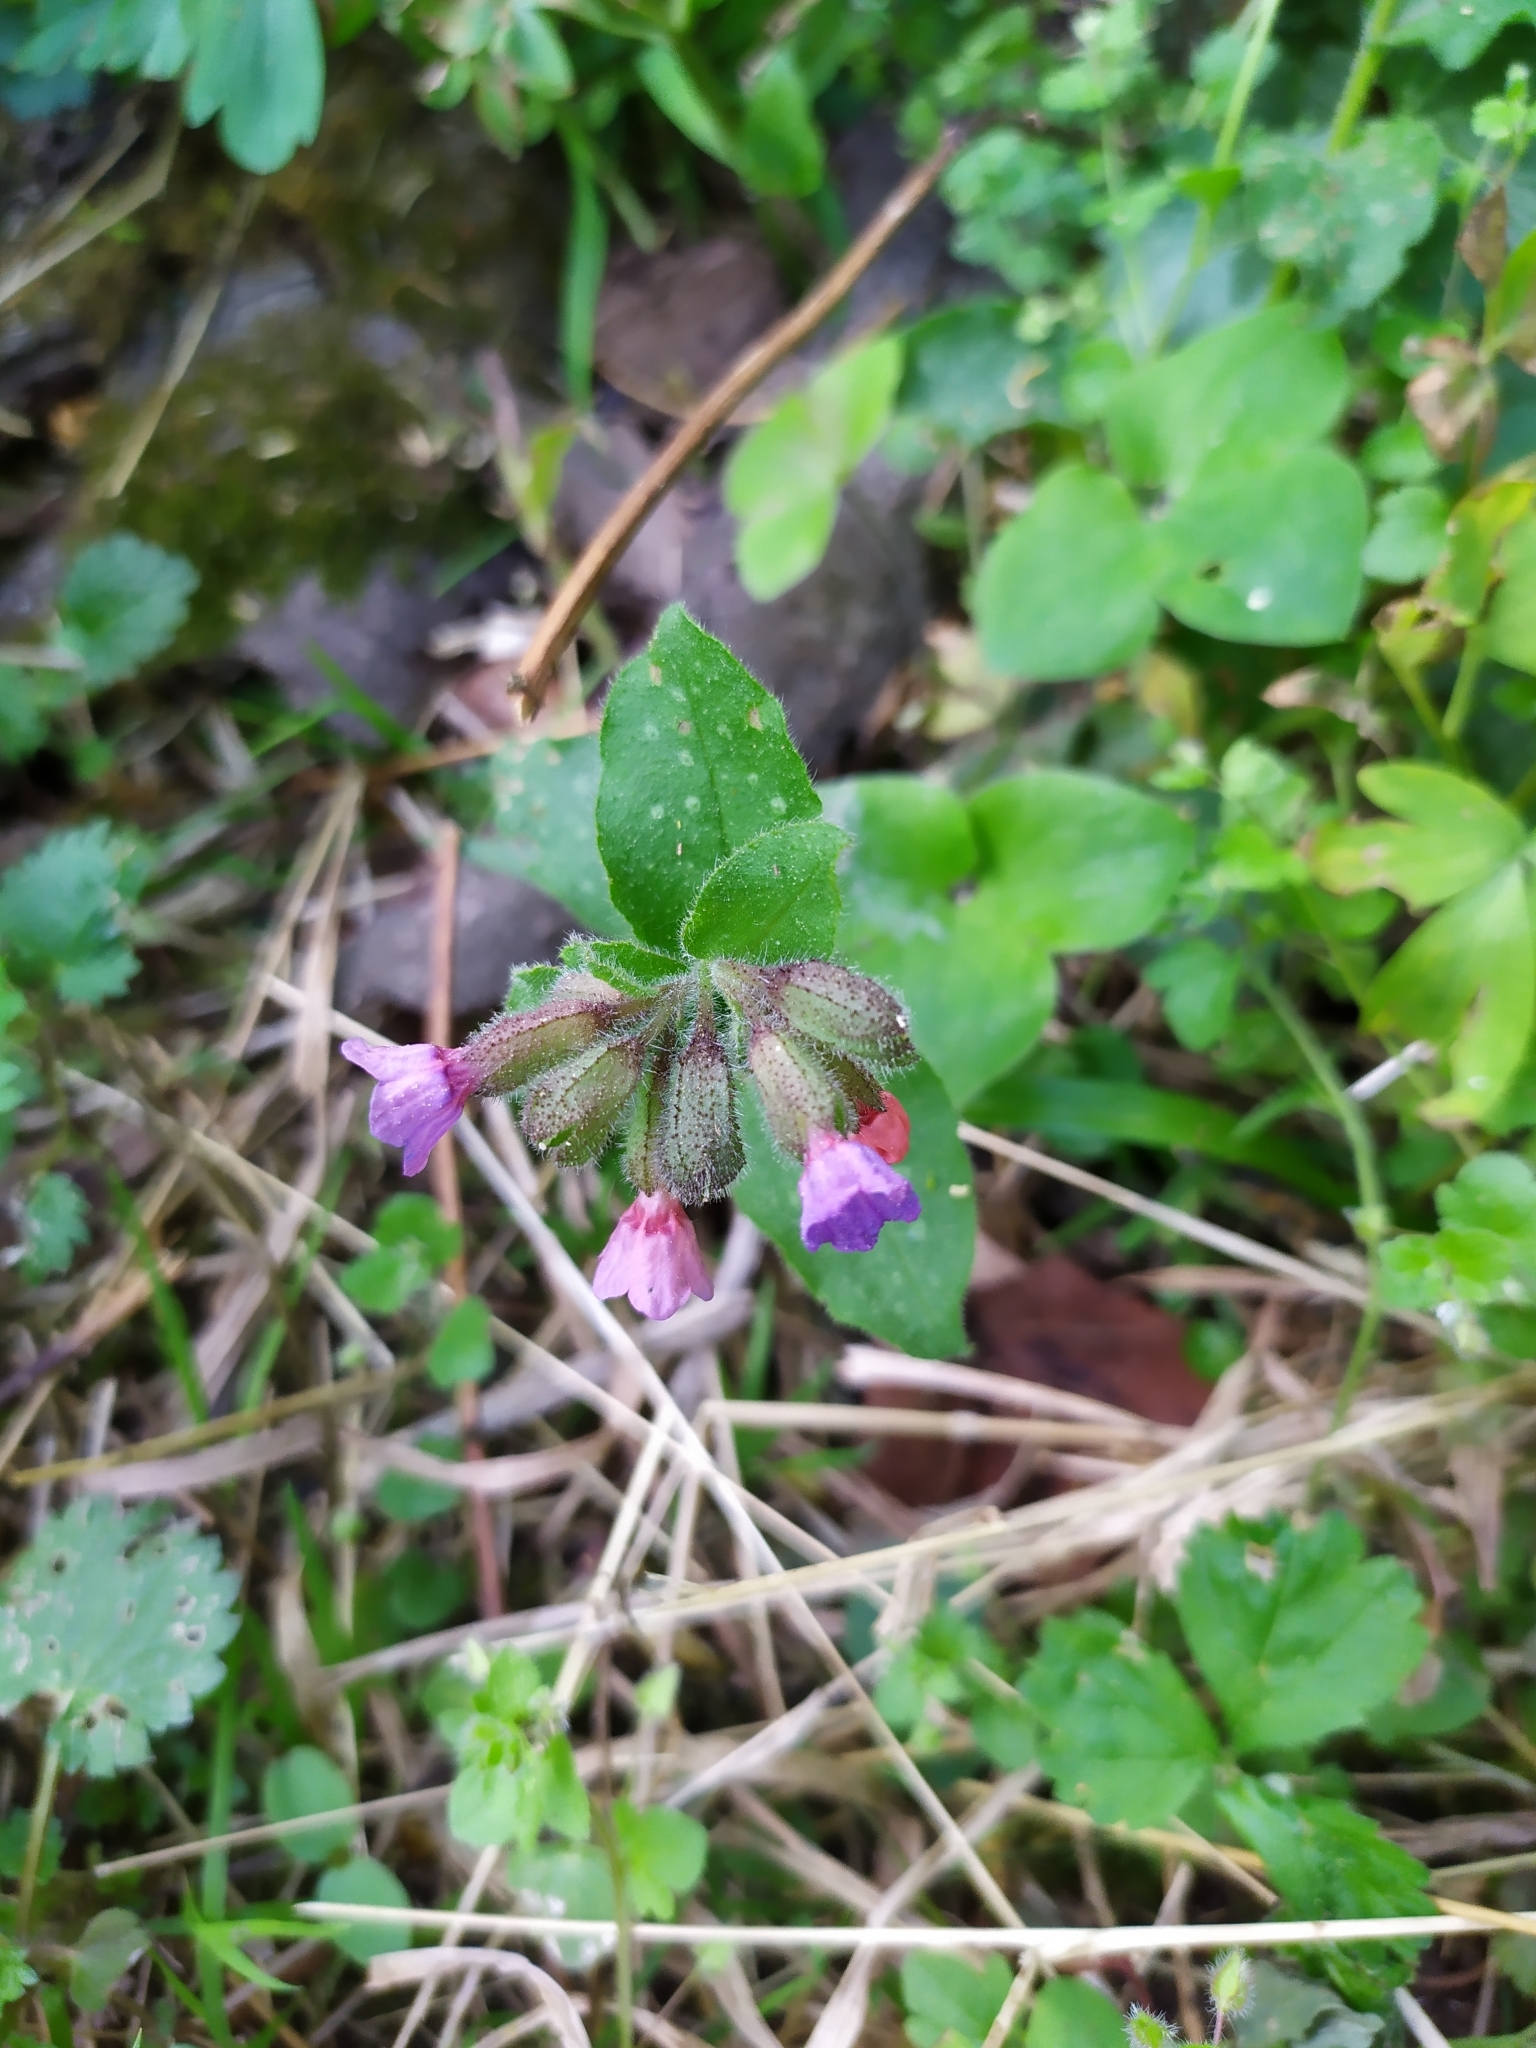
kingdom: Plantae
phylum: Tracheophyta
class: Magnoliopsida
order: Boraginales
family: Boraginaceae
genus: Pulmonaria
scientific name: Pulmonaria officinalis
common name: Lungwort
